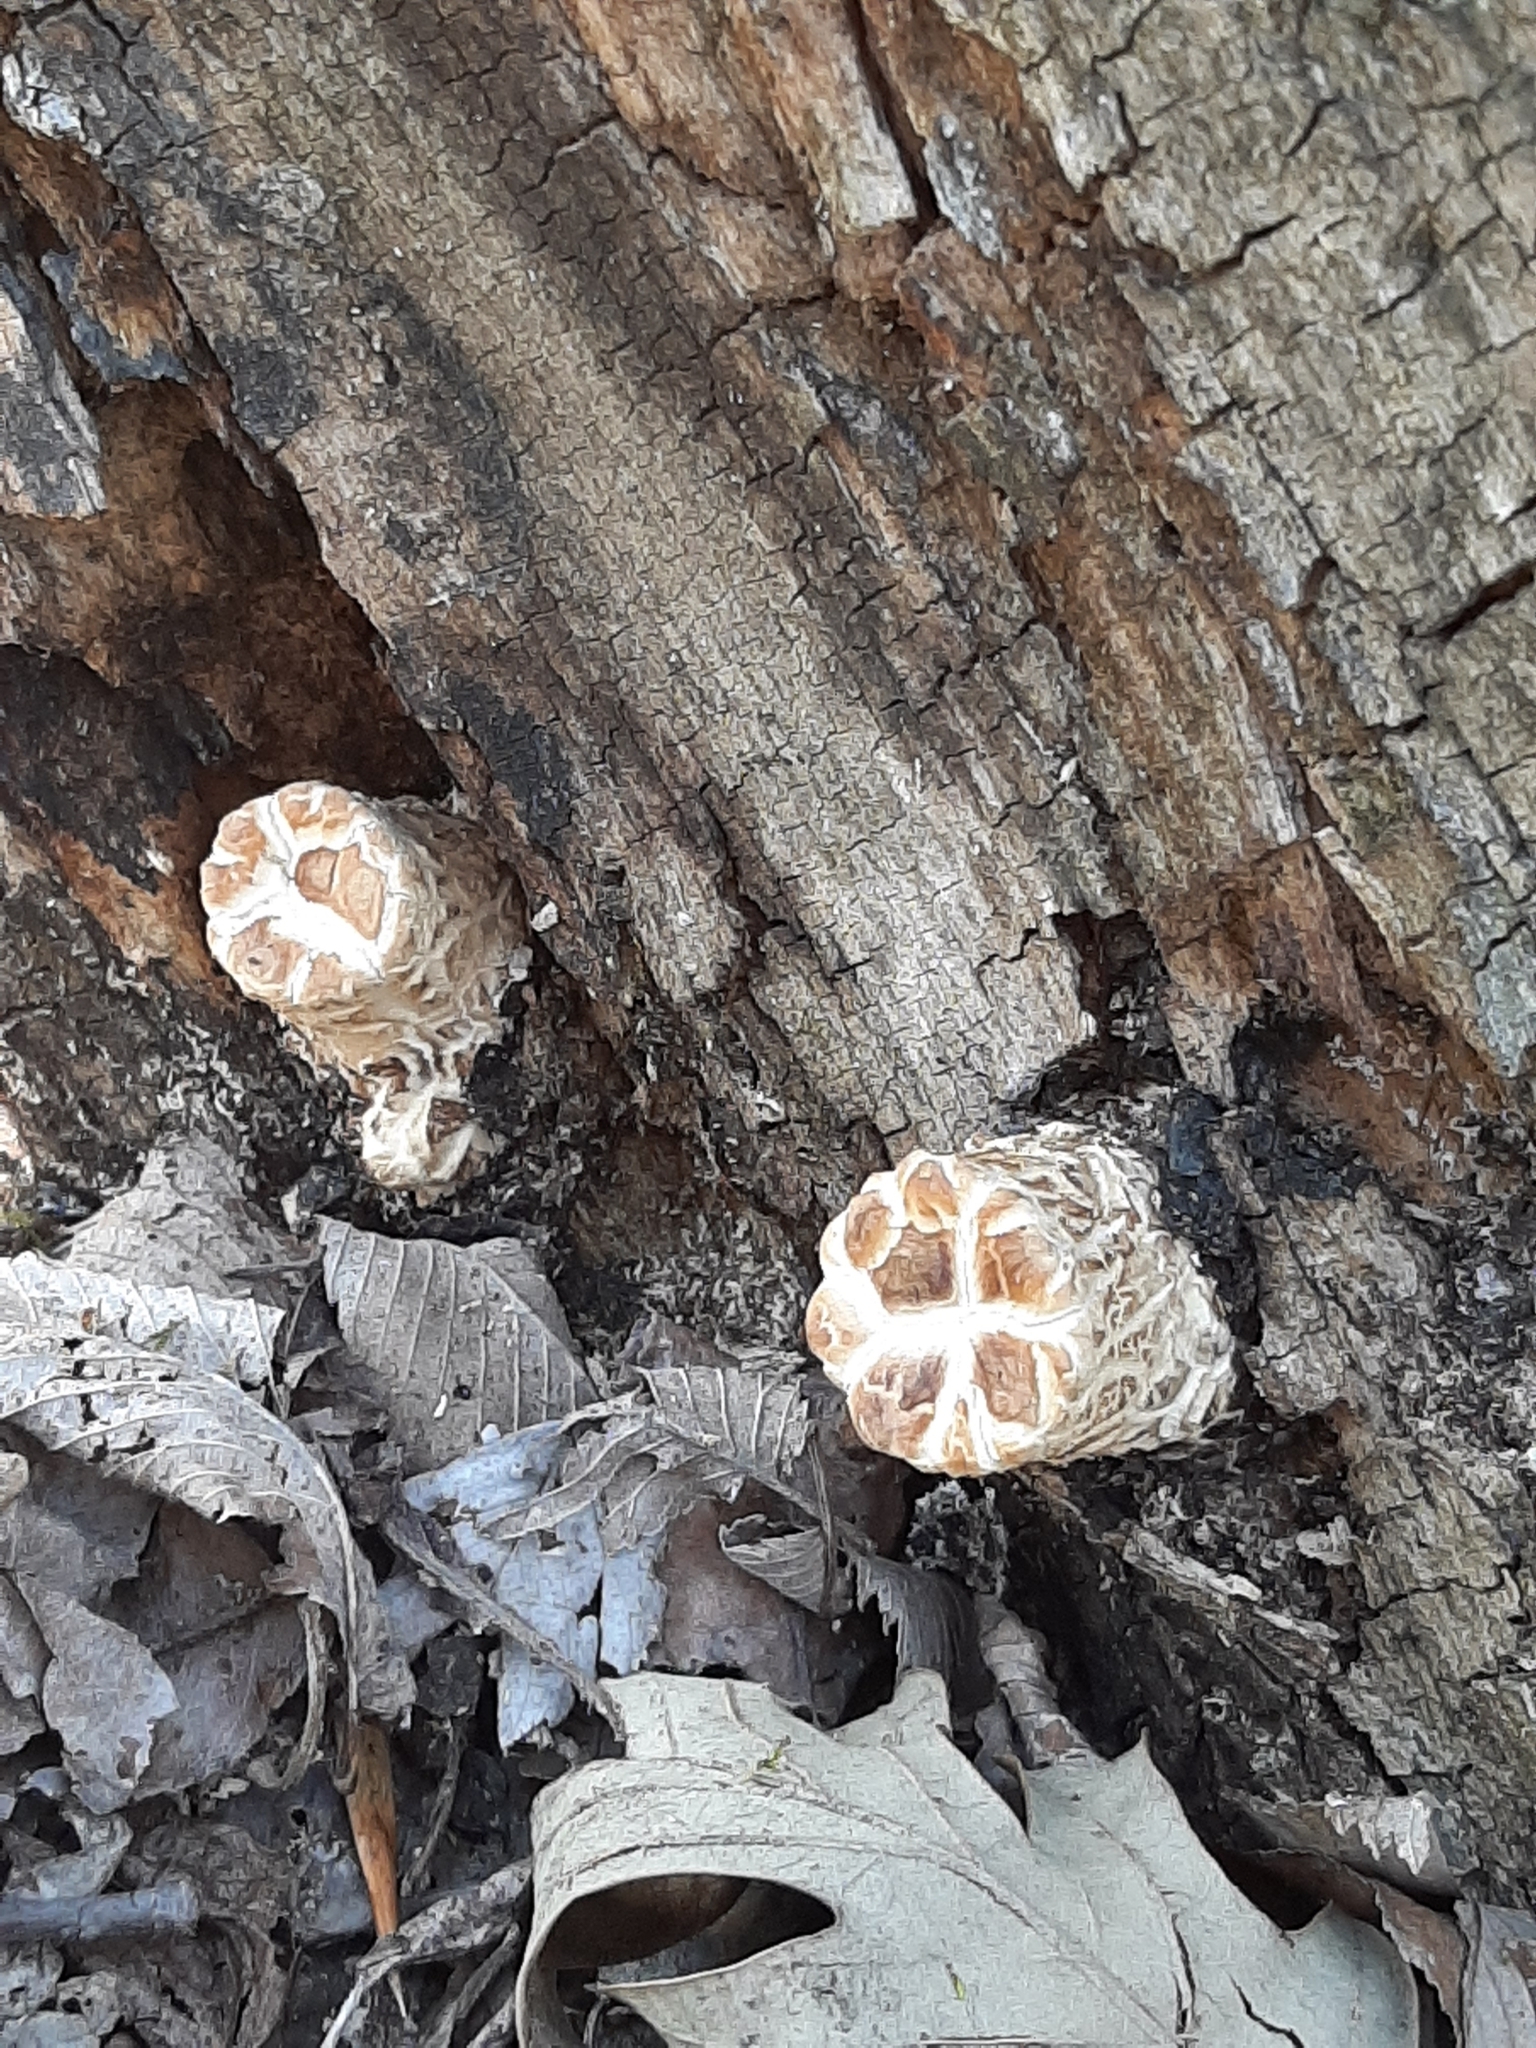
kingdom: Fungi
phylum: Basidiomycota
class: Agaricomycetes
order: Polyporales
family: Polyporaceae
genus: Cerioporus
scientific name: Cerioporus squamosus
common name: Dryad's saddle
